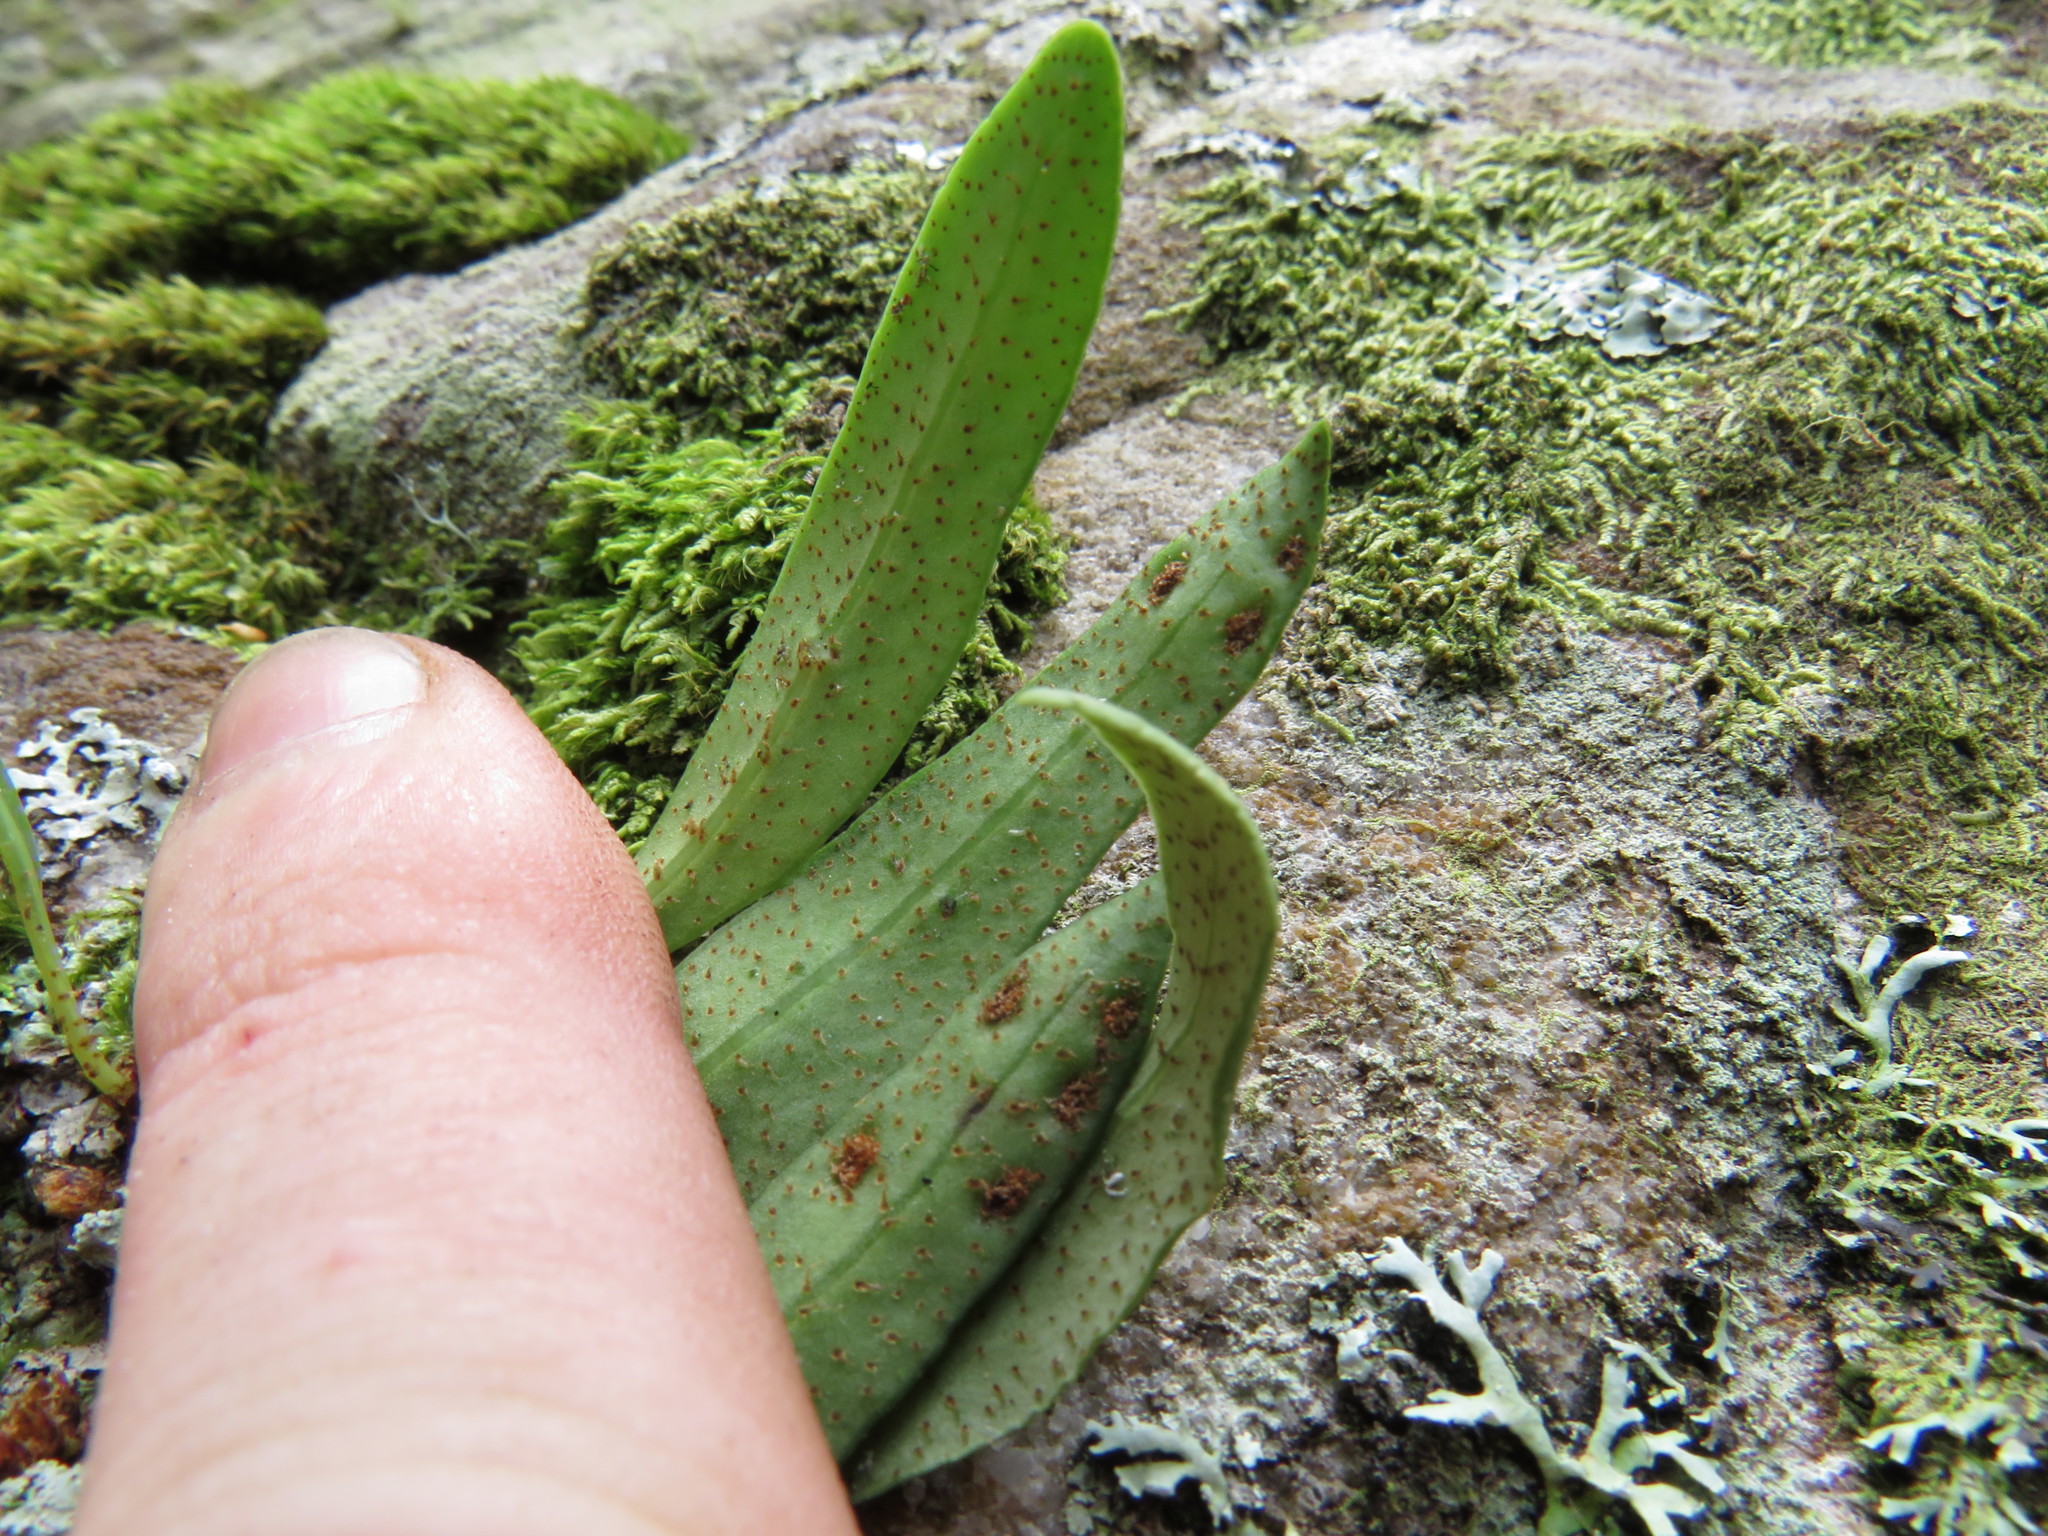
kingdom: Plantae
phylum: Tracheophyta
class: Polypodiopsida
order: Polypodiales
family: Polypodiaceae
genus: Pleopeltis
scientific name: Pleopeltis macrocarpa
